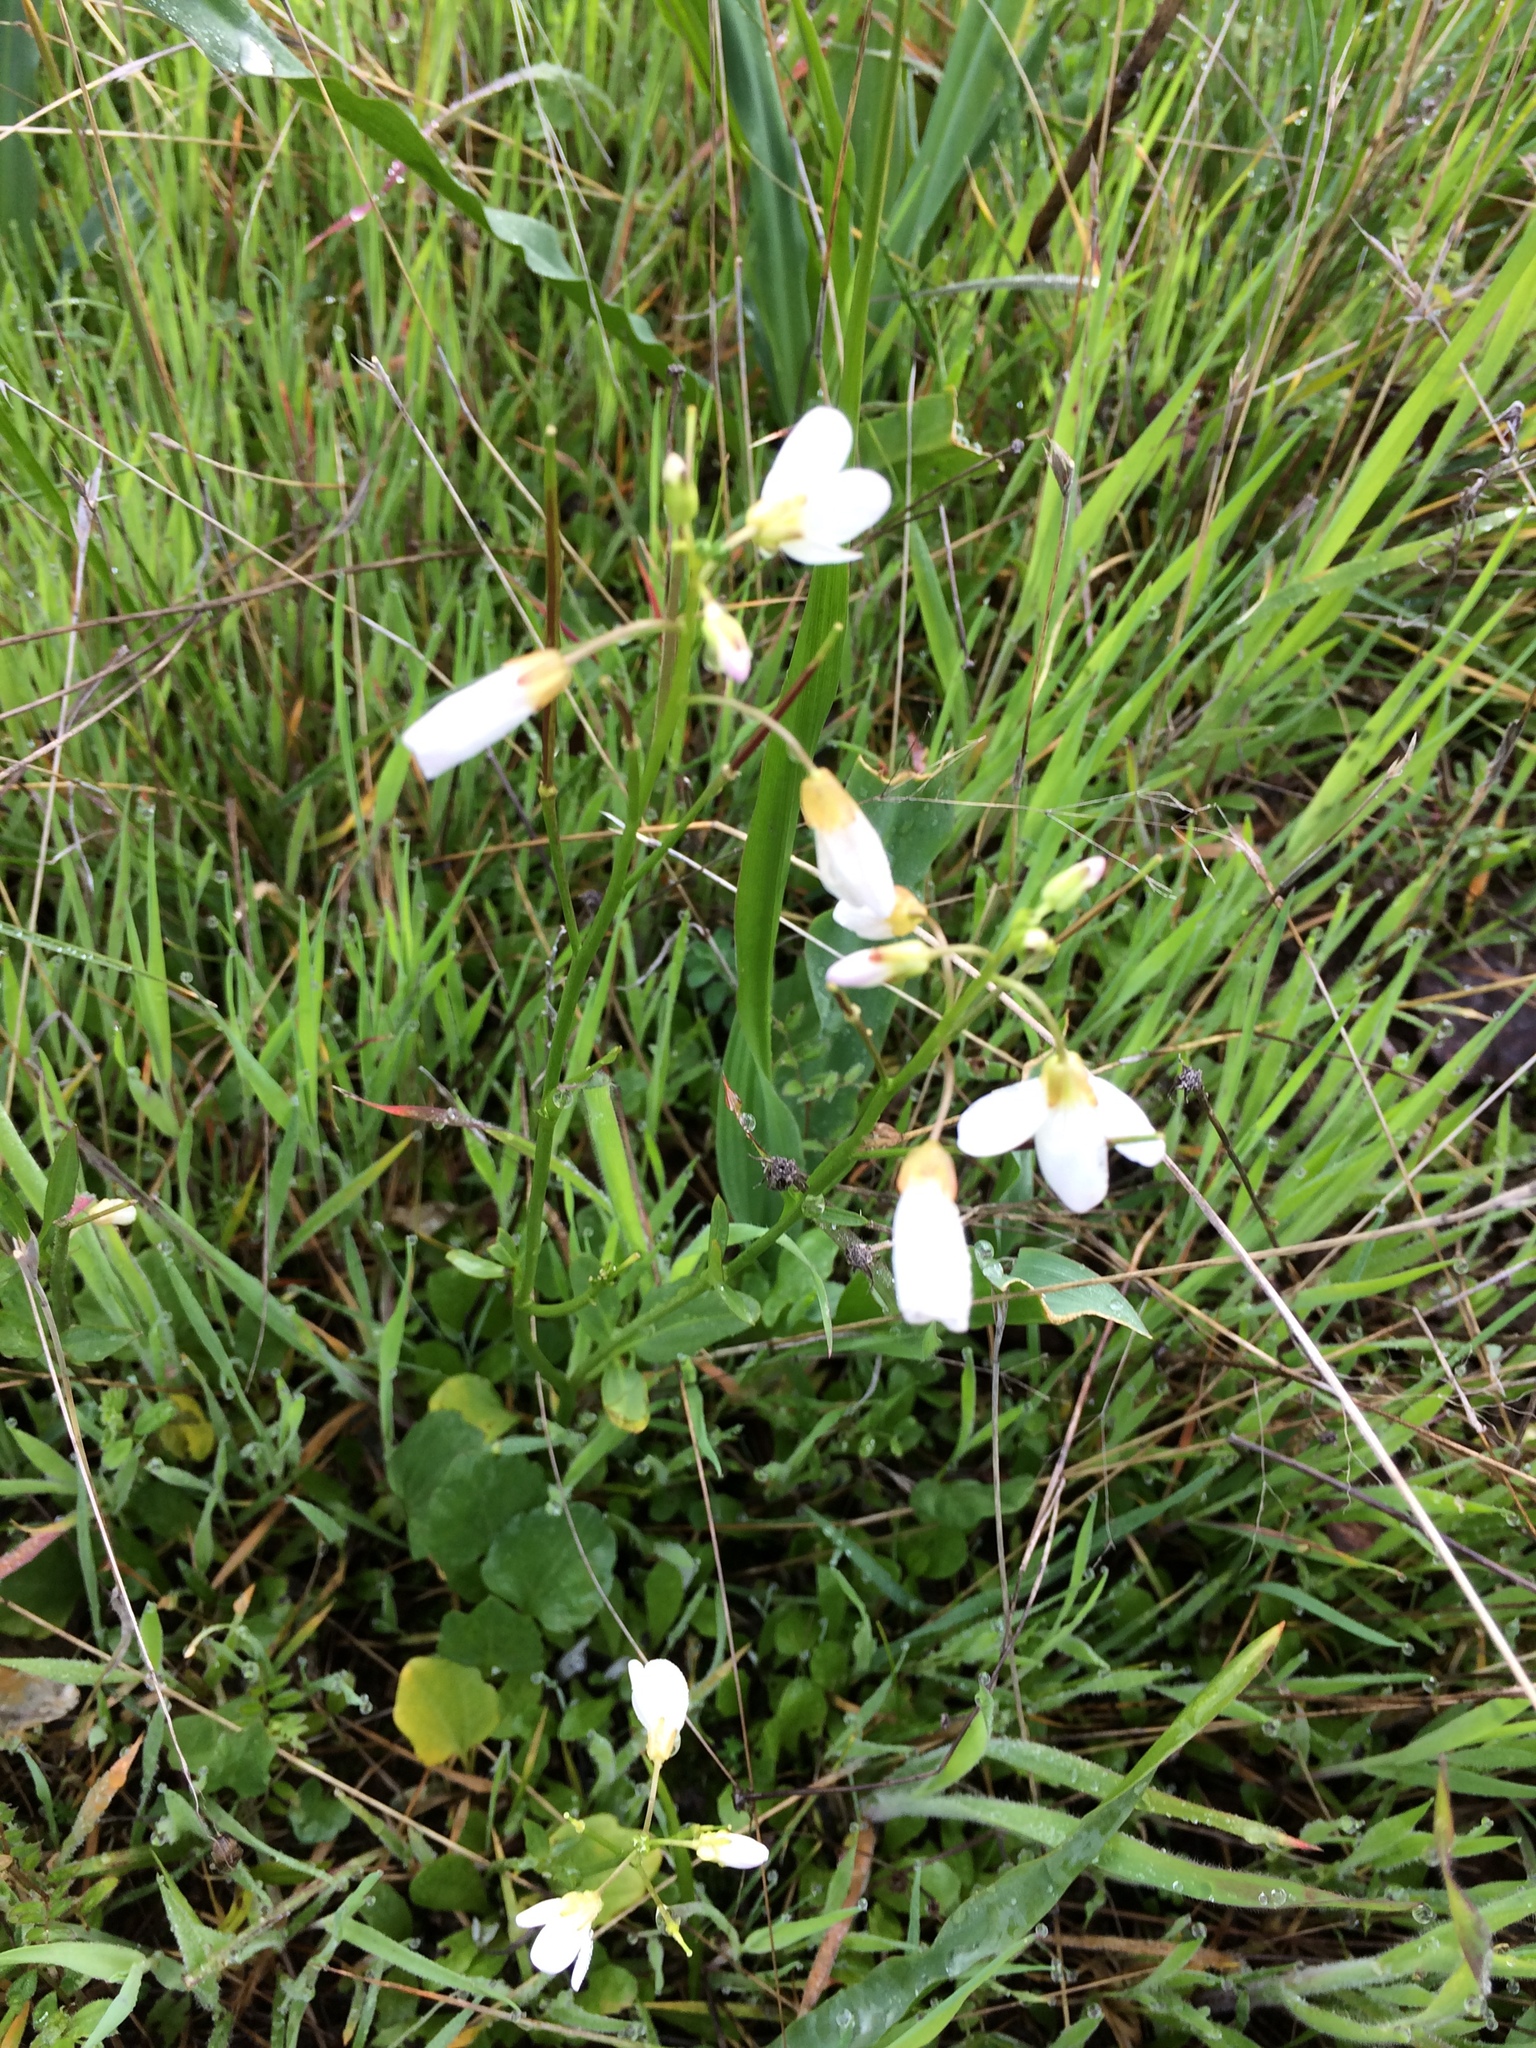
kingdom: Plantae
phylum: Tracheophyta
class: Magnoliopsida
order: Brassicales
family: Brassicaceae
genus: Cardamine
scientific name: Cardamine californica
